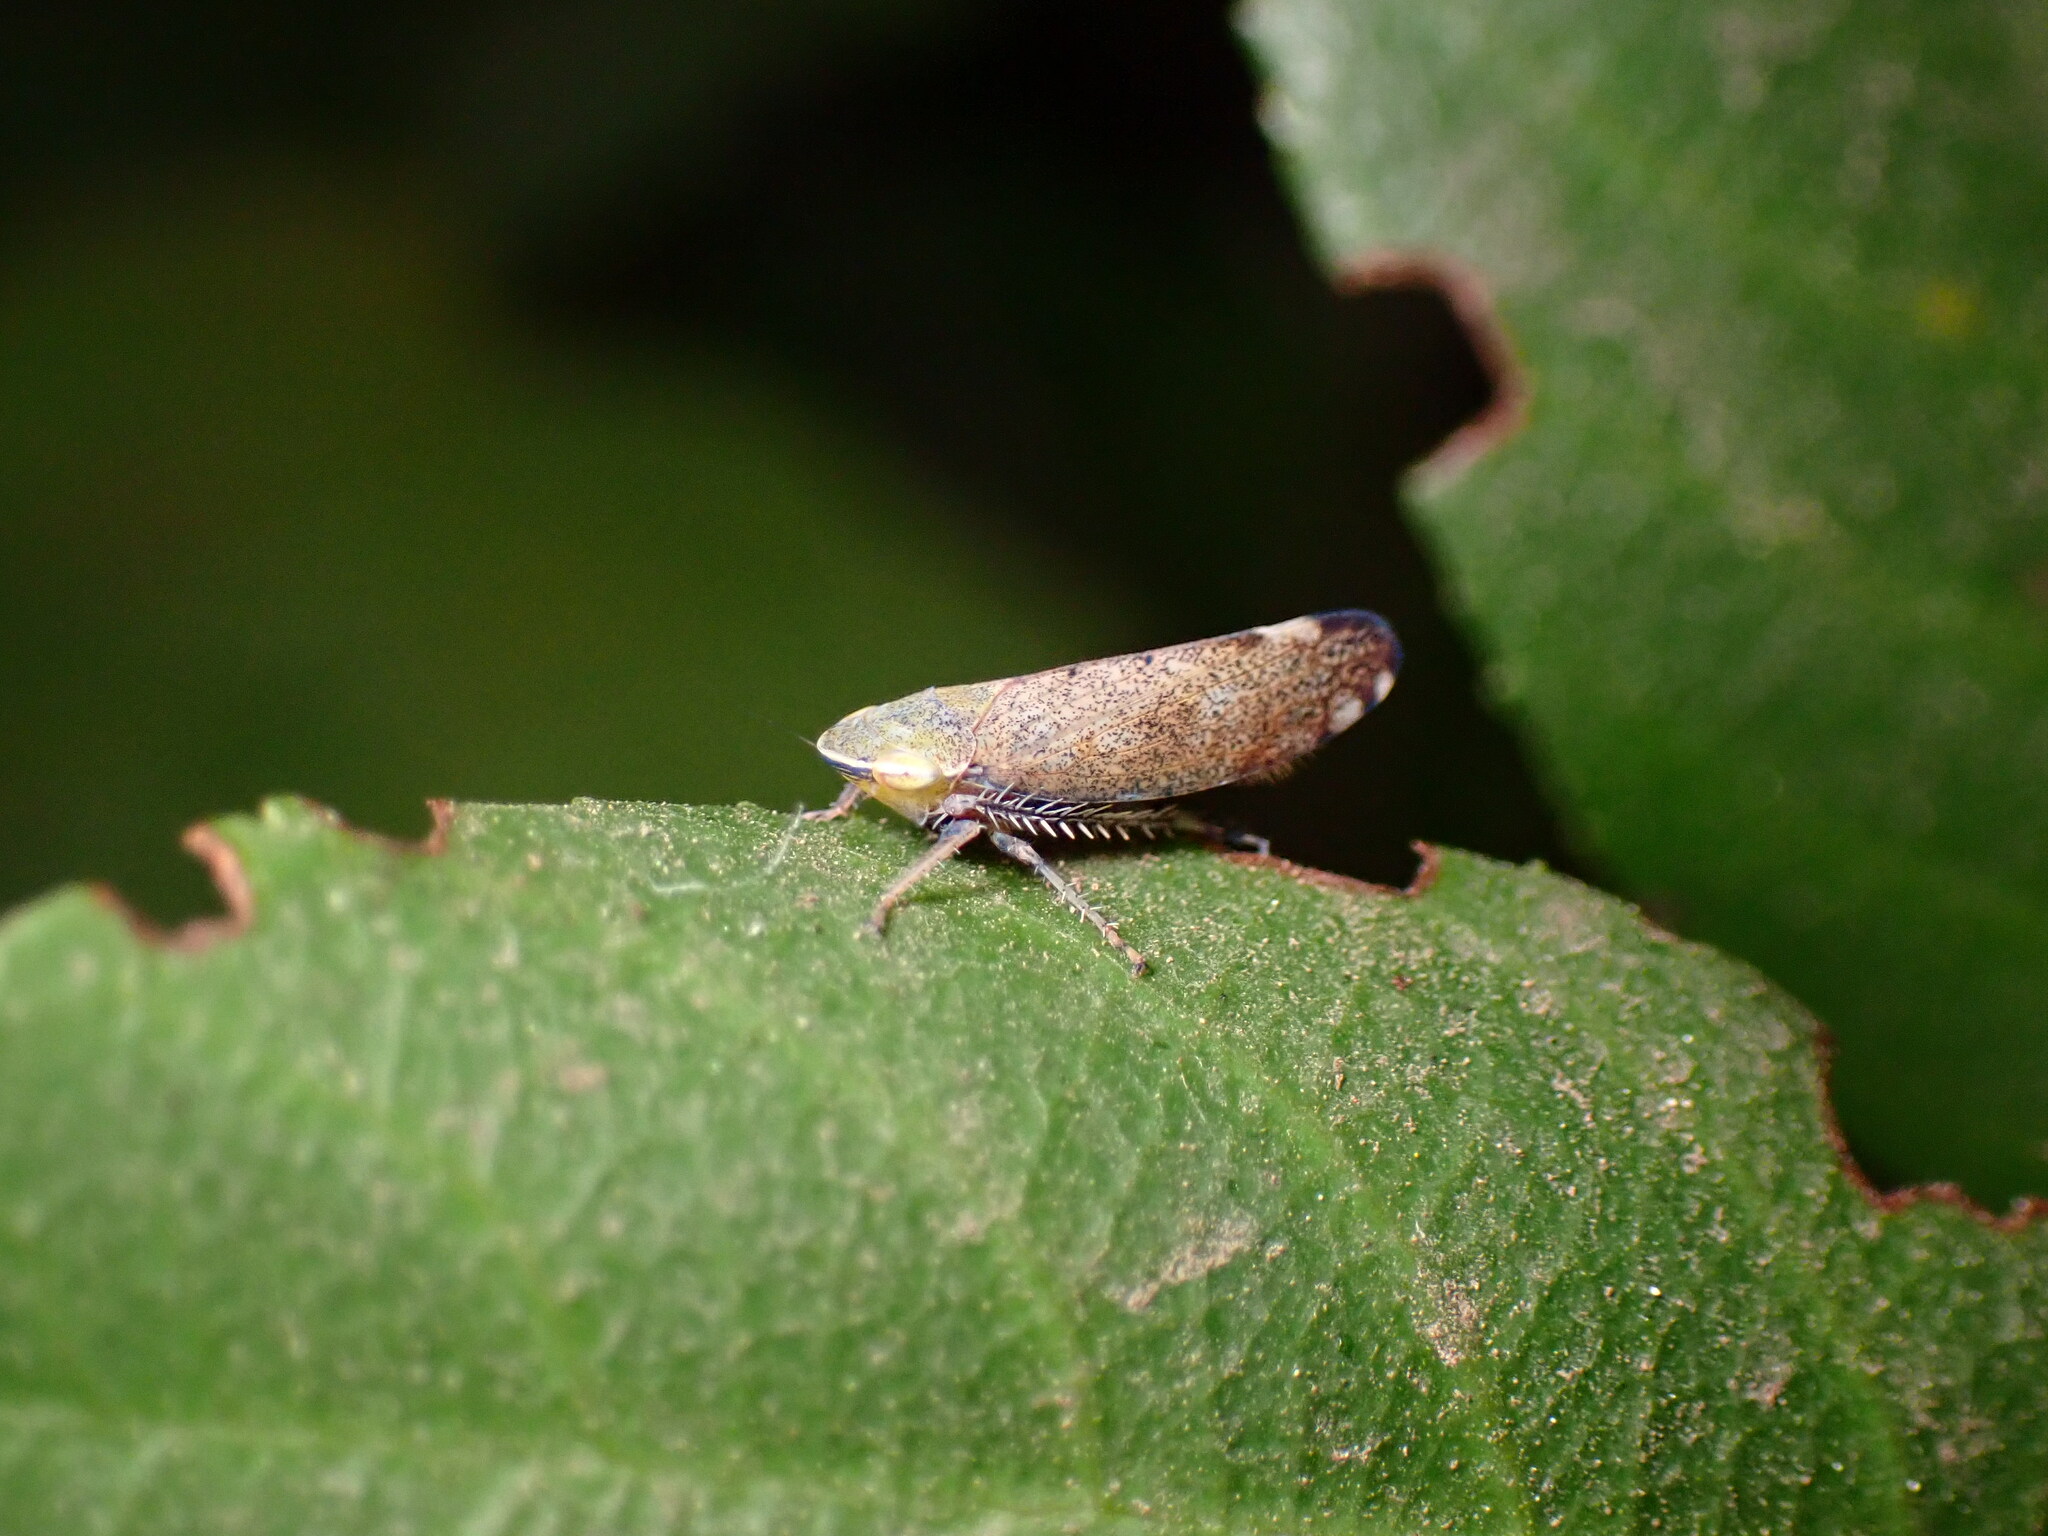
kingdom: Animalia
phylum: Arthropoda
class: Insecta
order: Hemiptera
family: Cicadellidae
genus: Fieberiella
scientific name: Fieberiella florii
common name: Flor’s leafhopper
